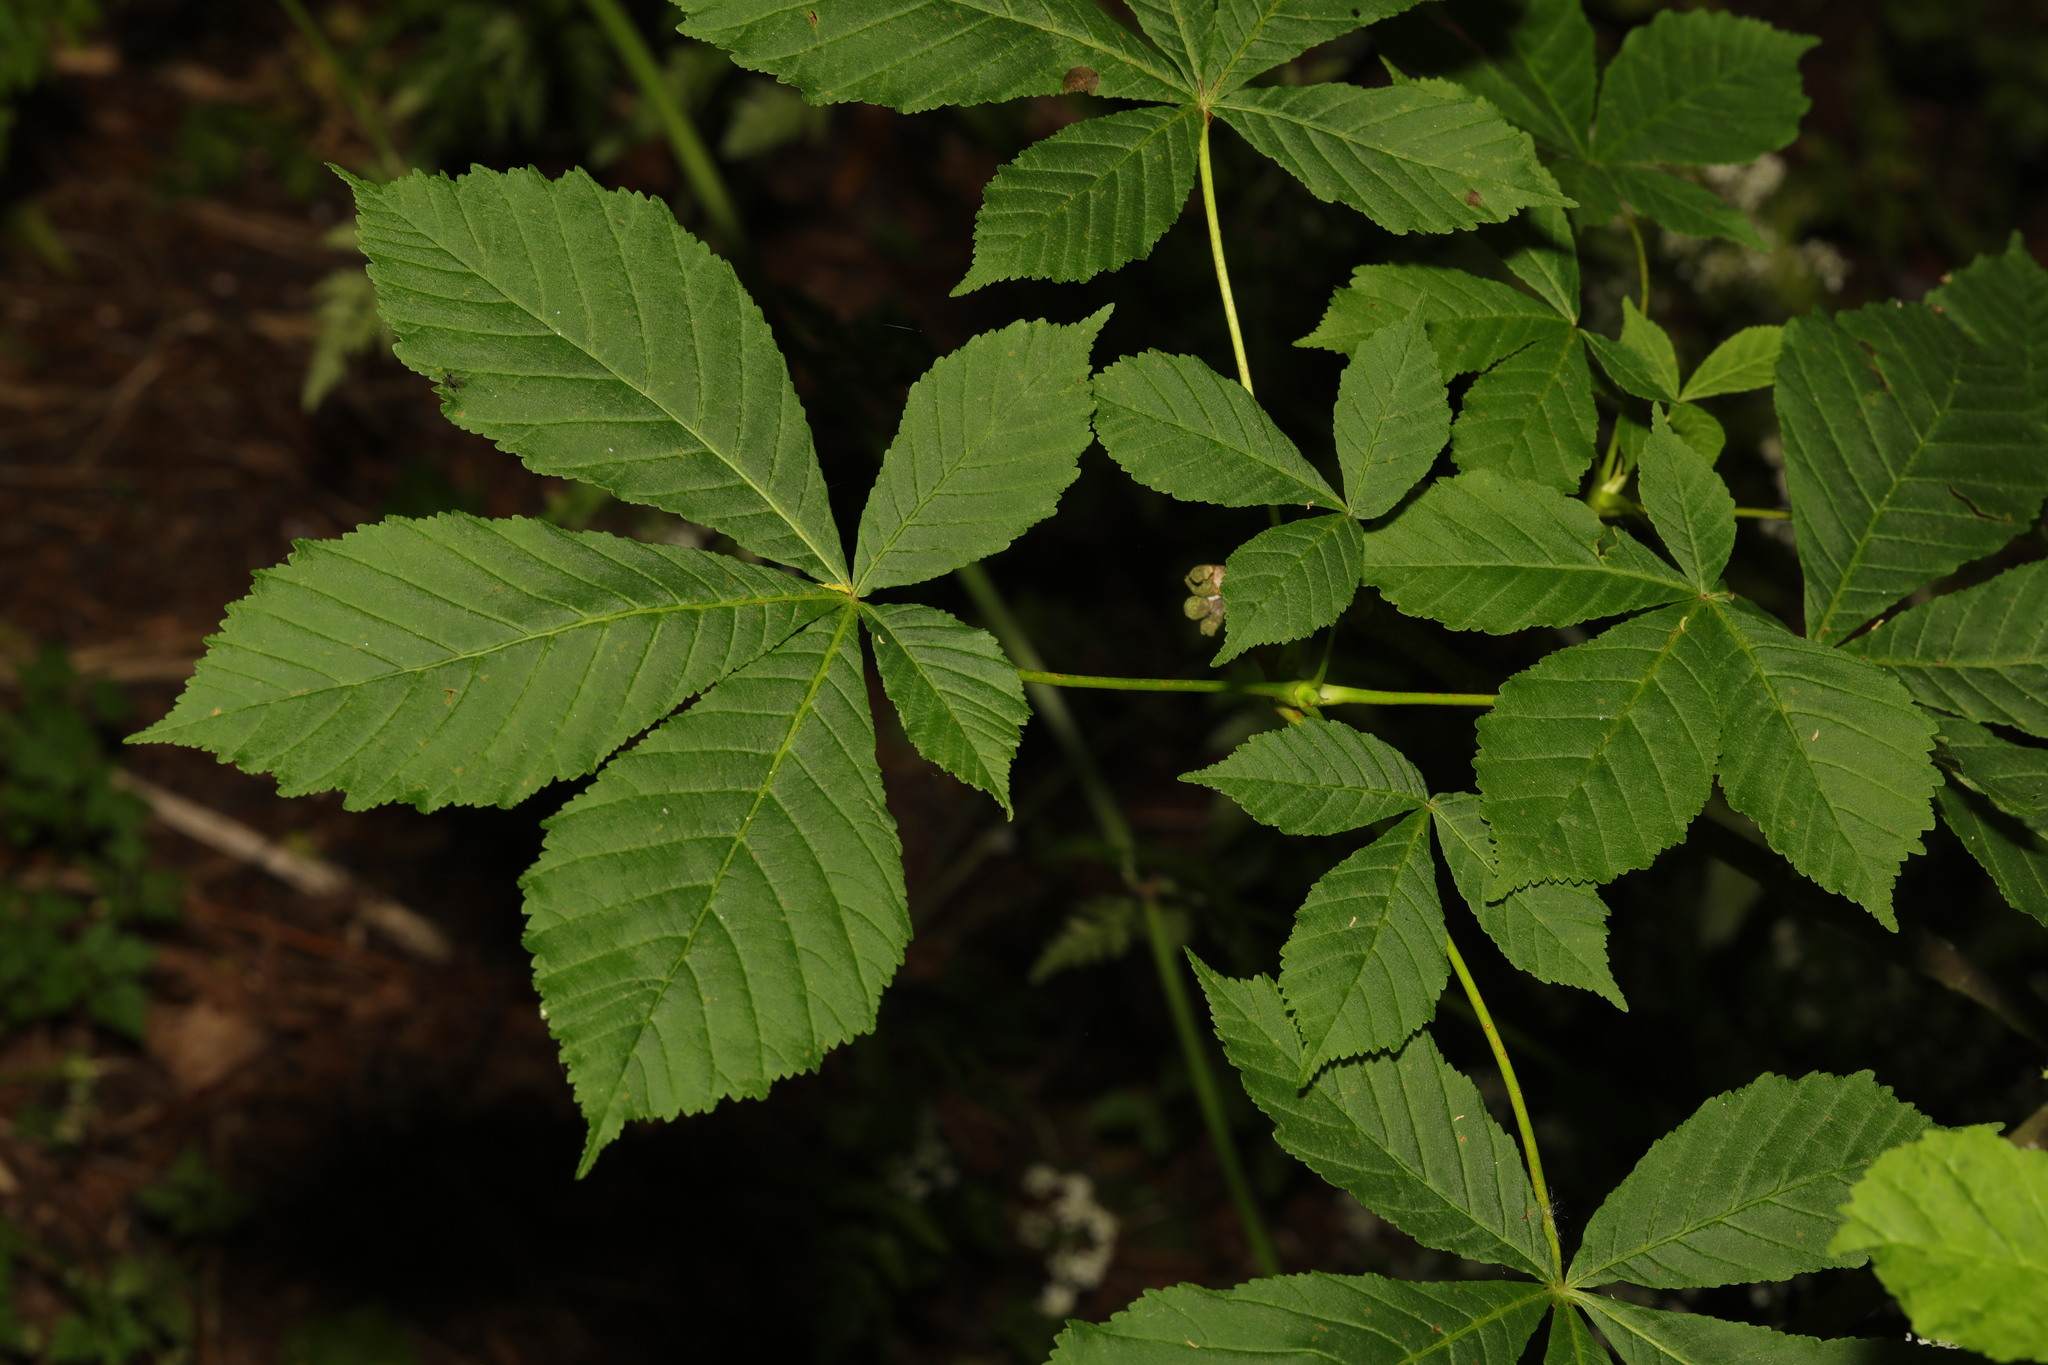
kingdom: Plantae
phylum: Tracheophyta
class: Magnoliopsida
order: Sapindales
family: Sapindaceae
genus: Aesculus
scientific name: Aesculus hippocastanum
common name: Horse-chestnut
